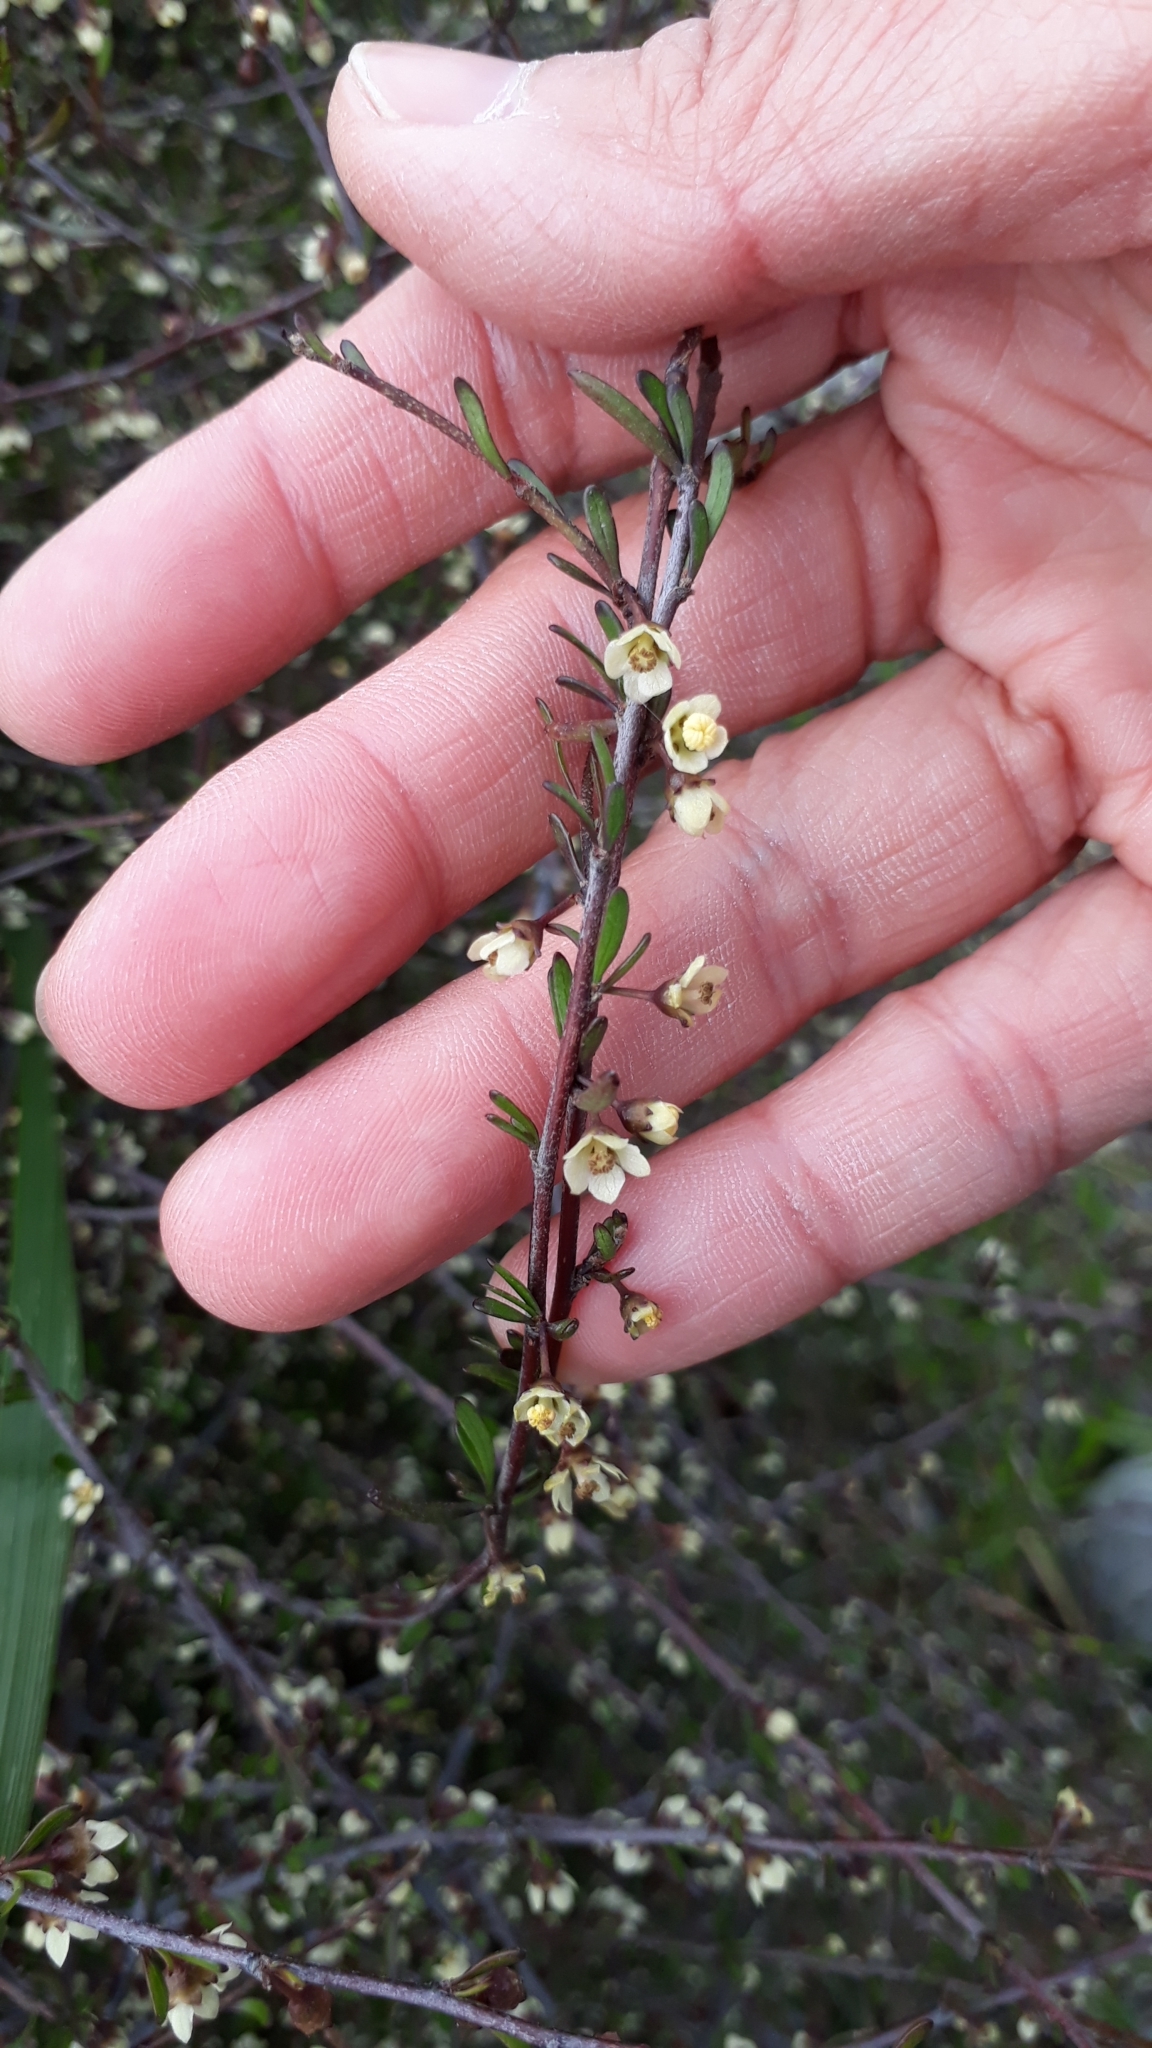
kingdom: Plantae
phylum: Tracheophyta
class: Magnoliopsida
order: Malvales
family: Malvaceae
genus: Plagianthus
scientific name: Plagianthus divaricatus
